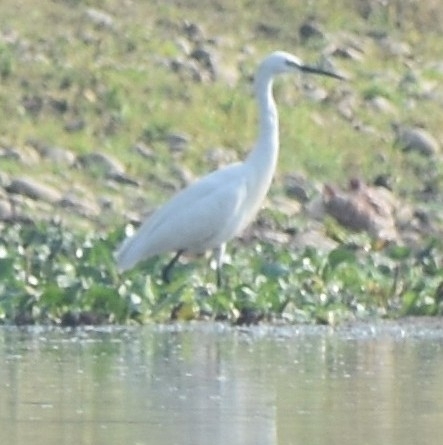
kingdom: Animalia
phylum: Chordata
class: Aves
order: Pelecaniformes
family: Ardeidae
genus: Egretta
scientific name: Egretta garzetta
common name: Little egret
